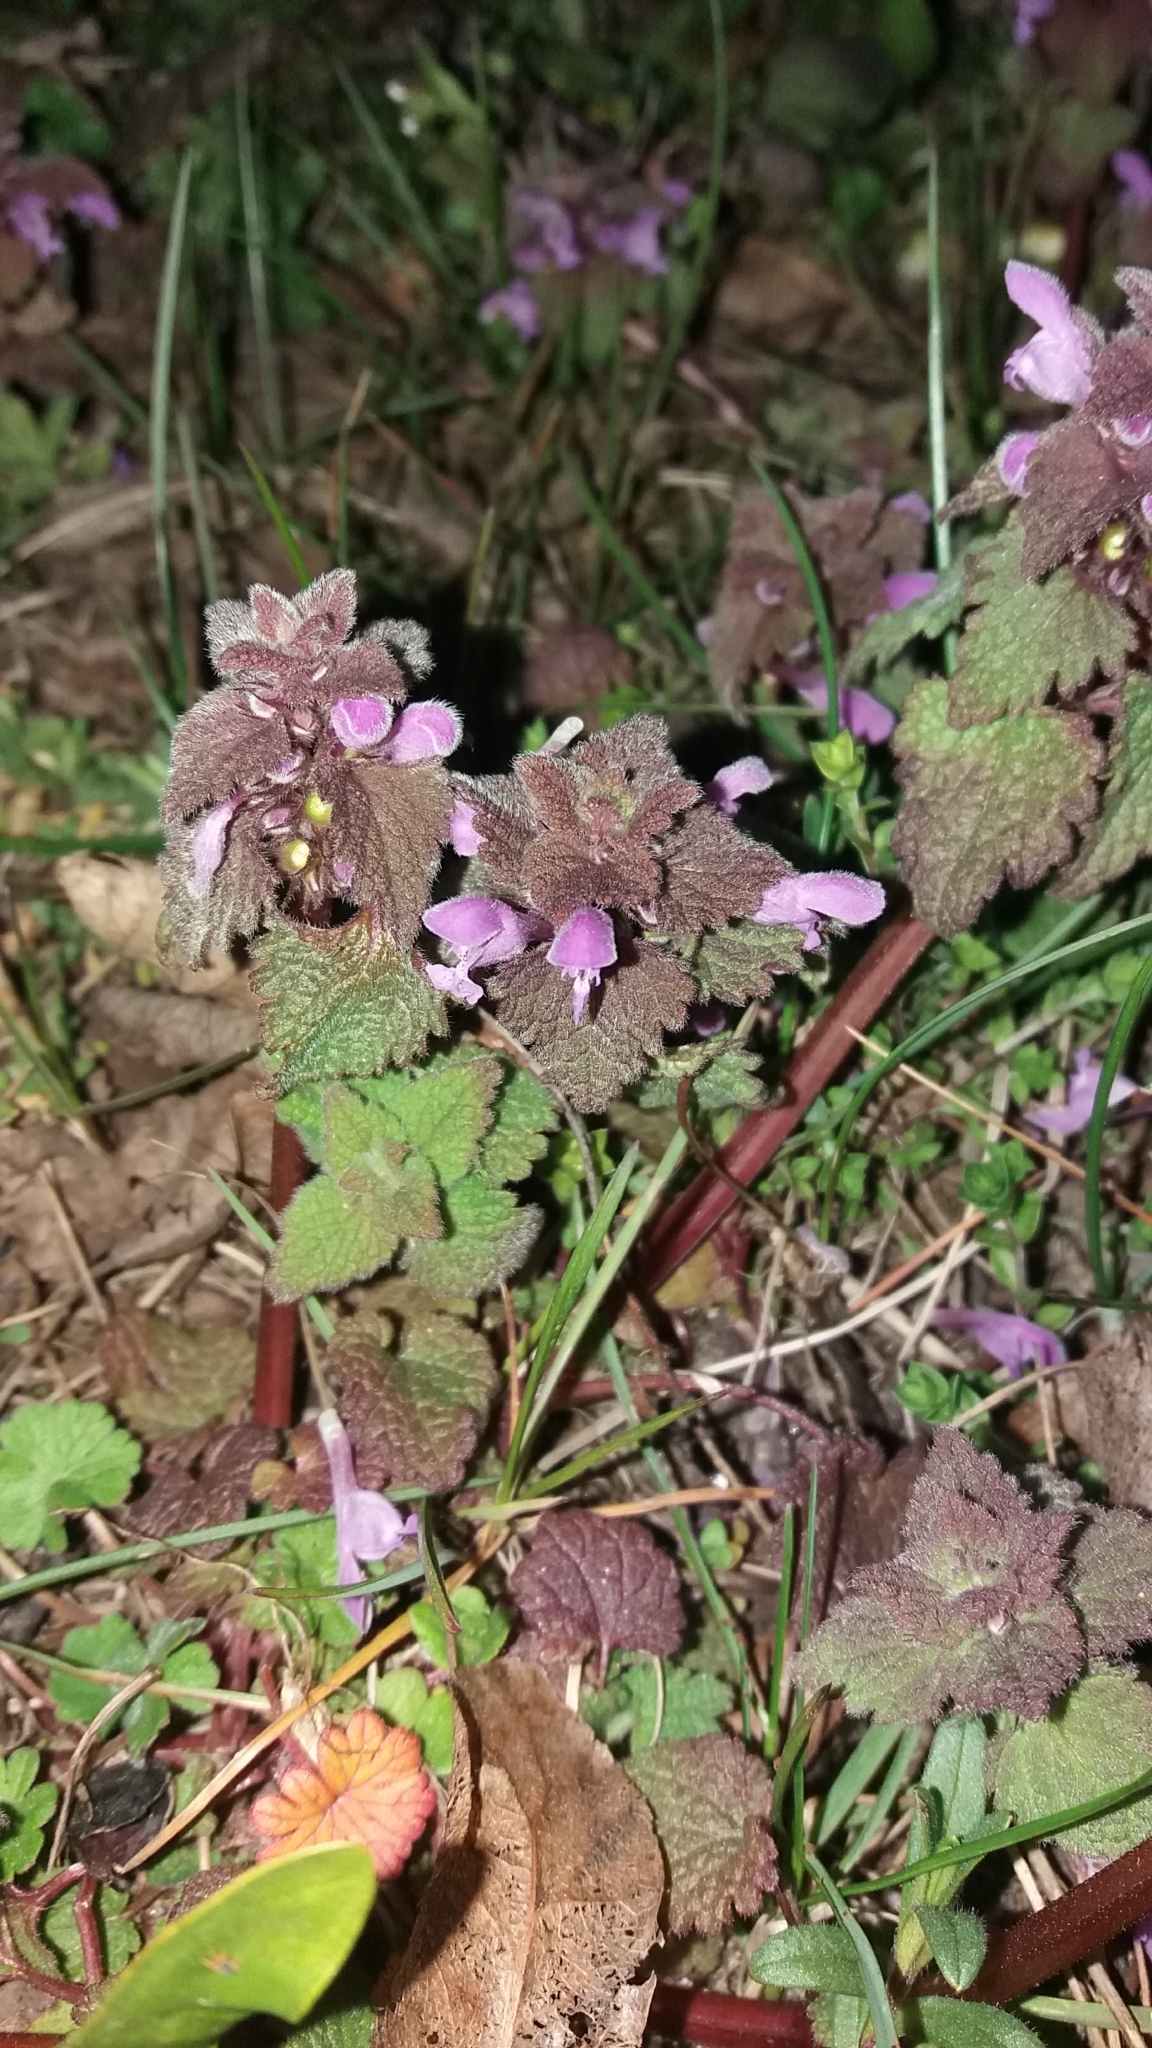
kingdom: Plantae
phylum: Tracheophyta
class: Magnoliopsida
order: Lamiales
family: Lamiaceae
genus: Lamium
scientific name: Lamium purpureum
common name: Red dead-nettle
